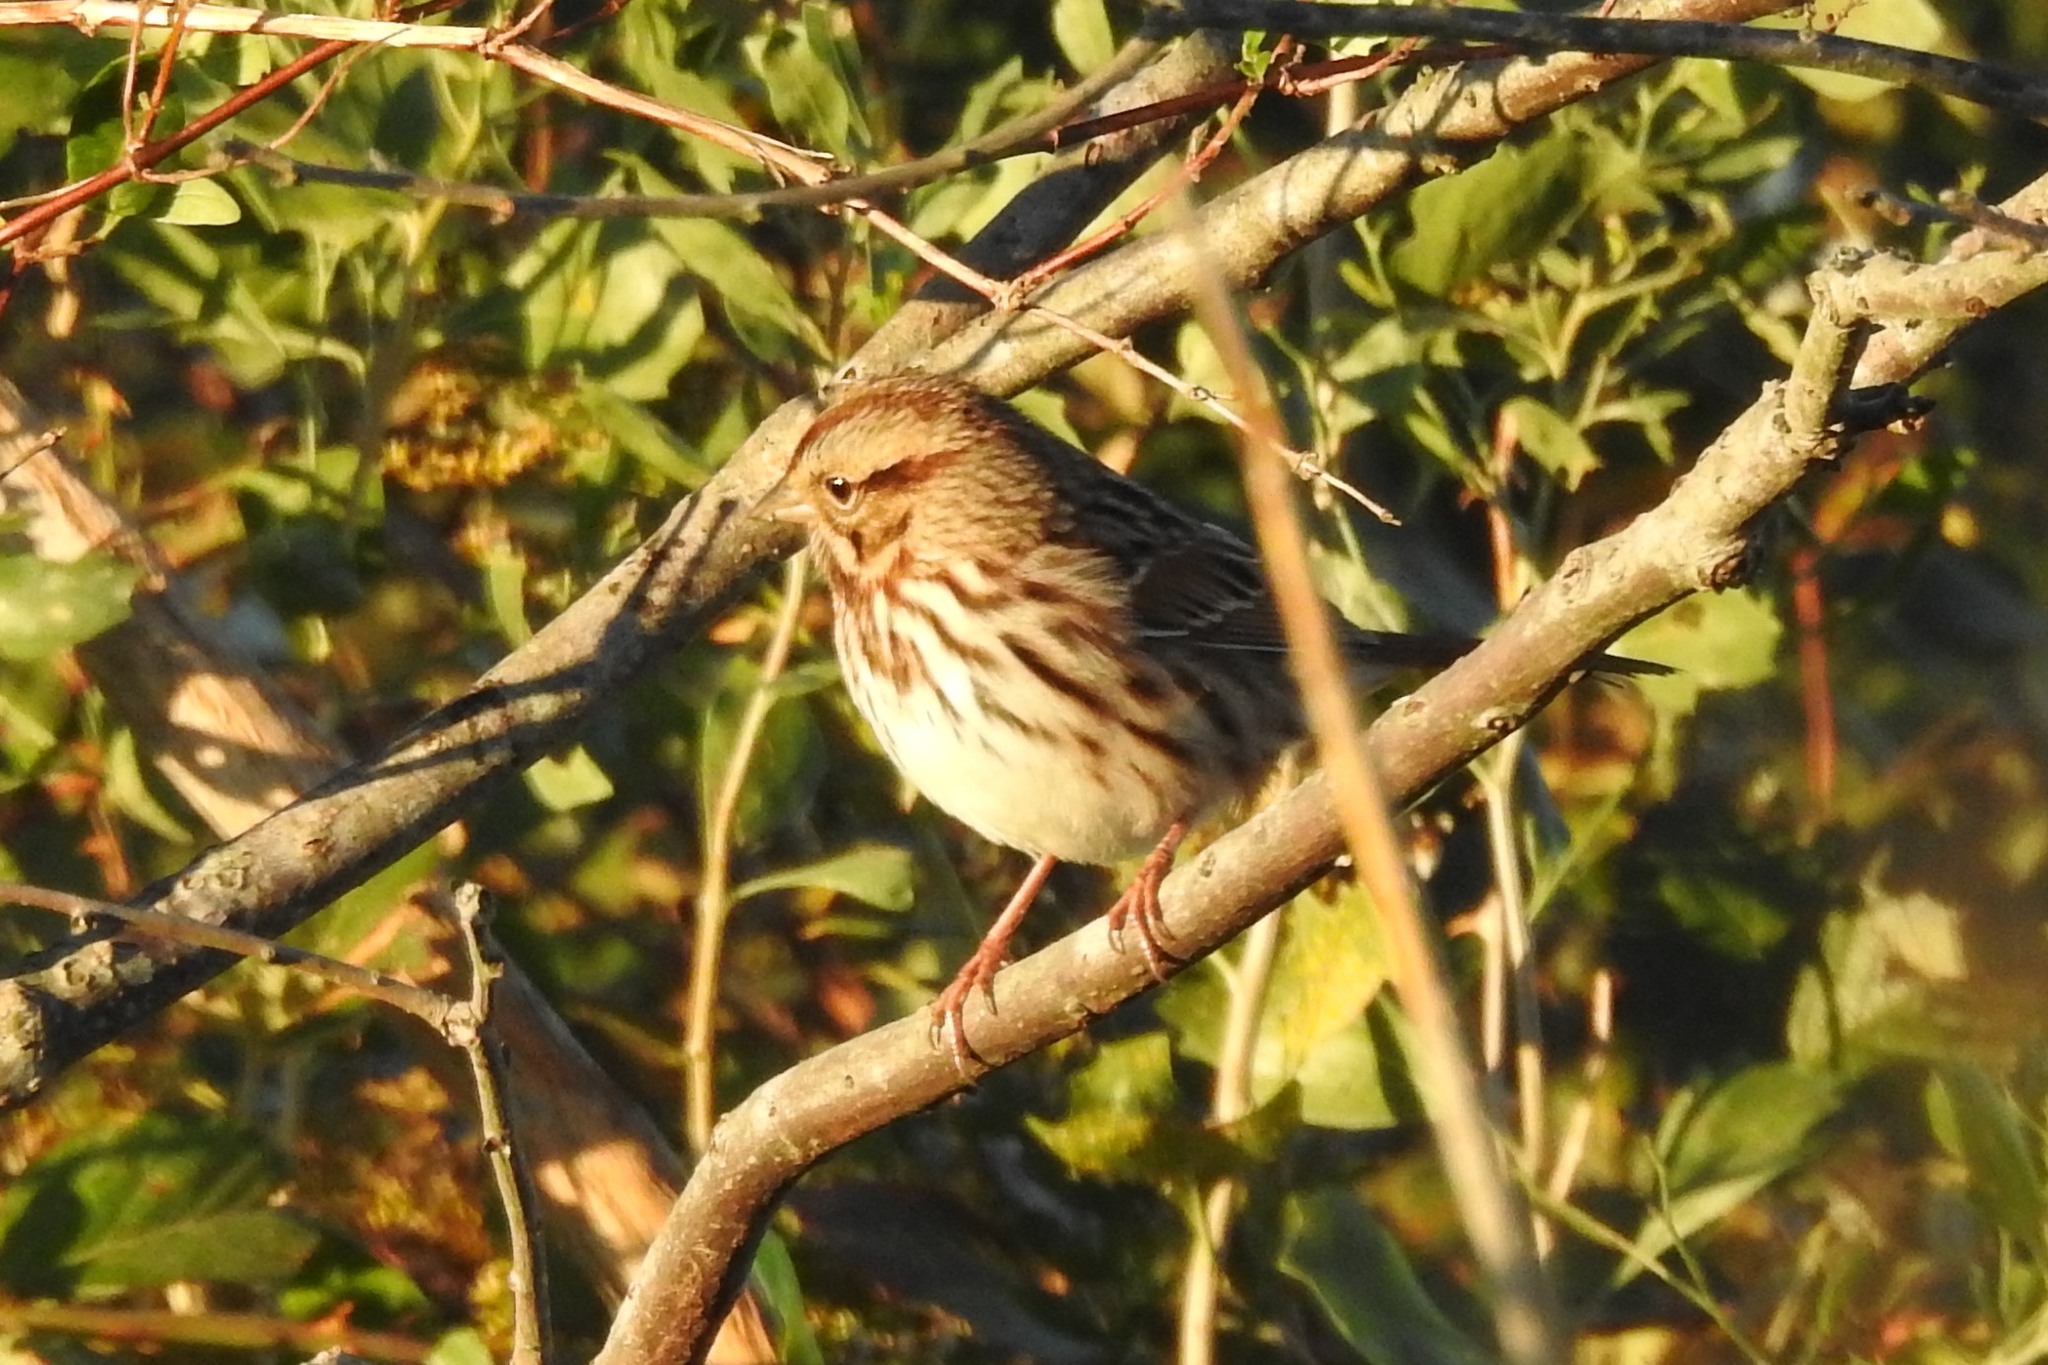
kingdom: Animalia
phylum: Chordata
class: Aves
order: Passeriformes
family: Passerellidae
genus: Melospiza
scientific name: Melospiza melodia
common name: Song sparrow
